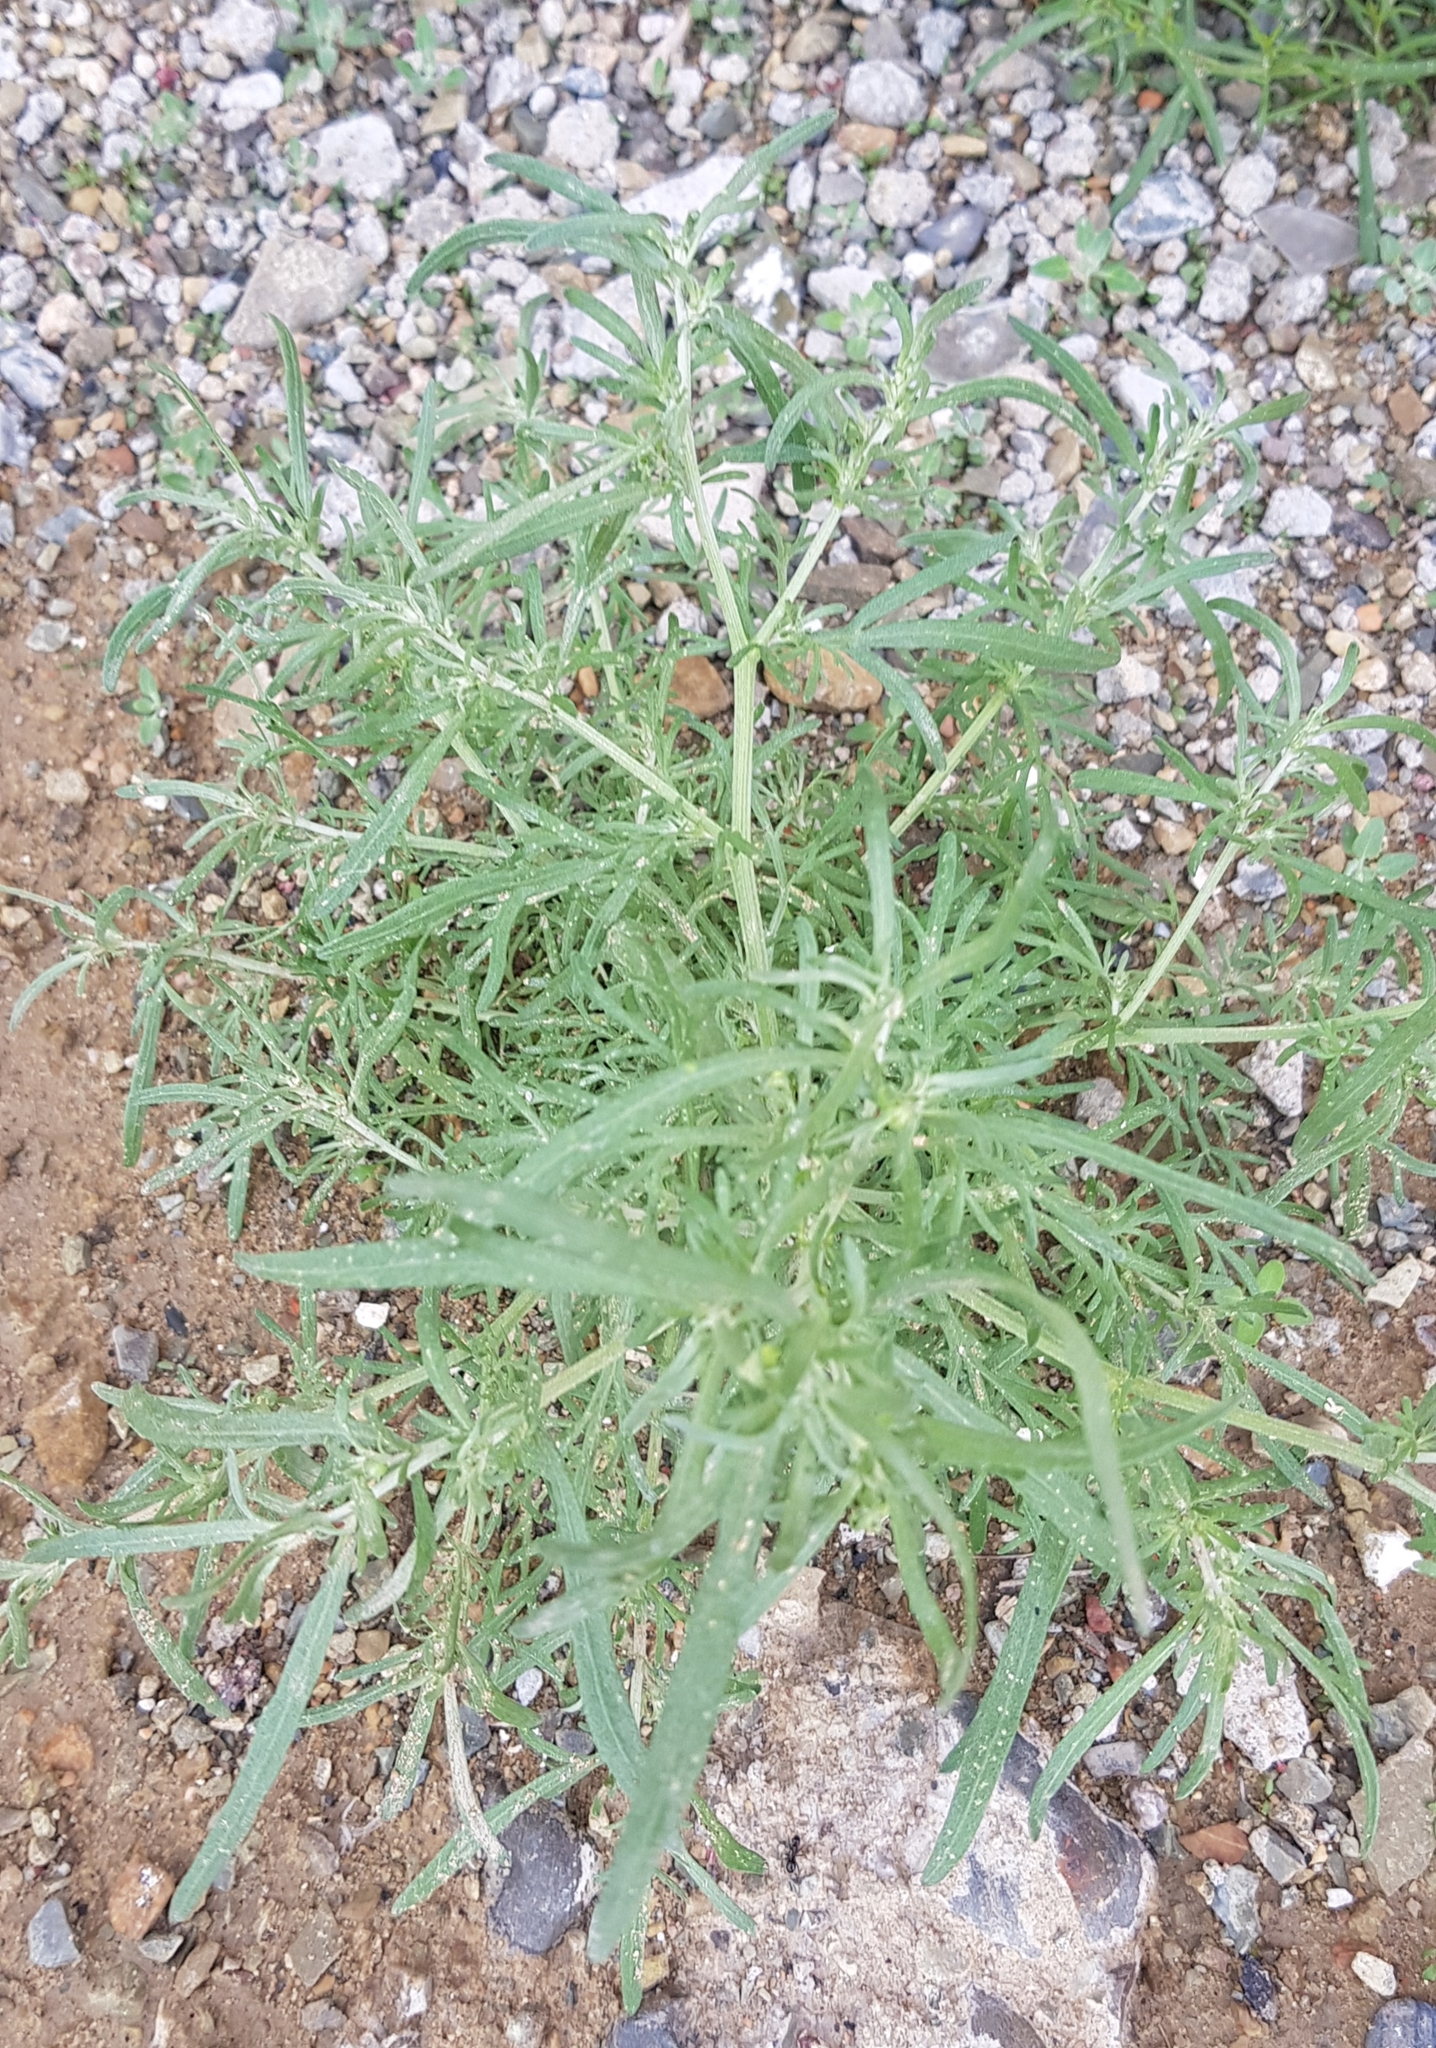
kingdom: Plantae
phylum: Tracheophyta
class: Magnoliopsida
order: Caryophyllales
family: Amaranthaceae
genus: Bassia
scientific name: Bassia scoparia
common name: Belvedere
